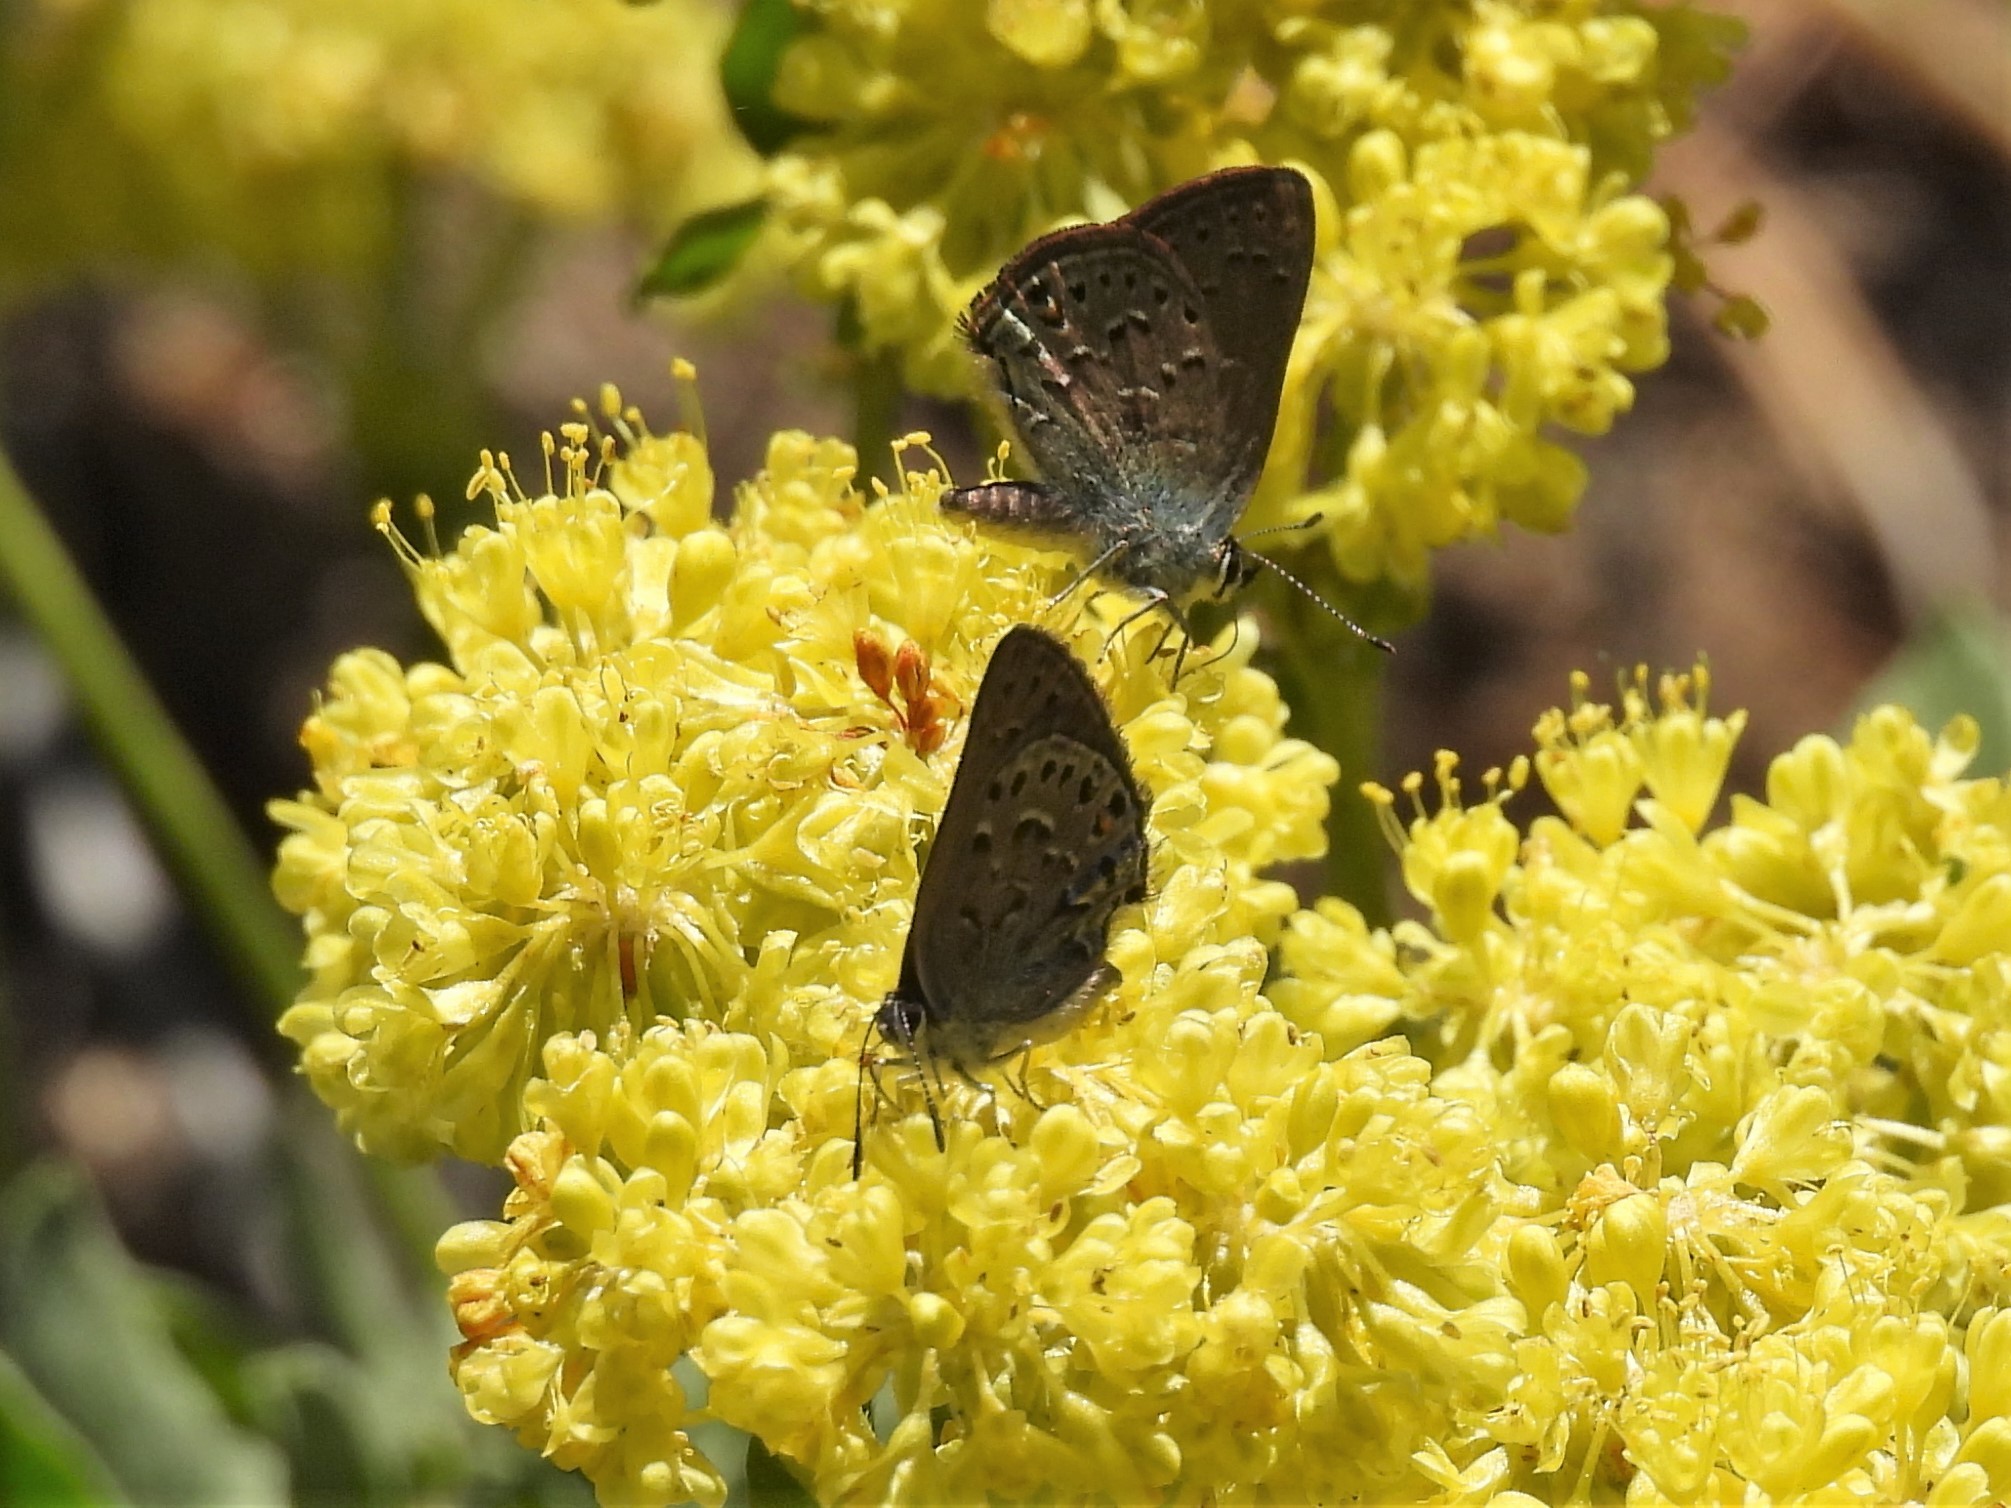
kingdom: Animalia
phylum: Arthropoda
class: Insecta
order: Lepidoptera
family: Lycaenidae
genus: Satyrium
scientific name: Satyrium behrii
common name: Behr's hairstreak
